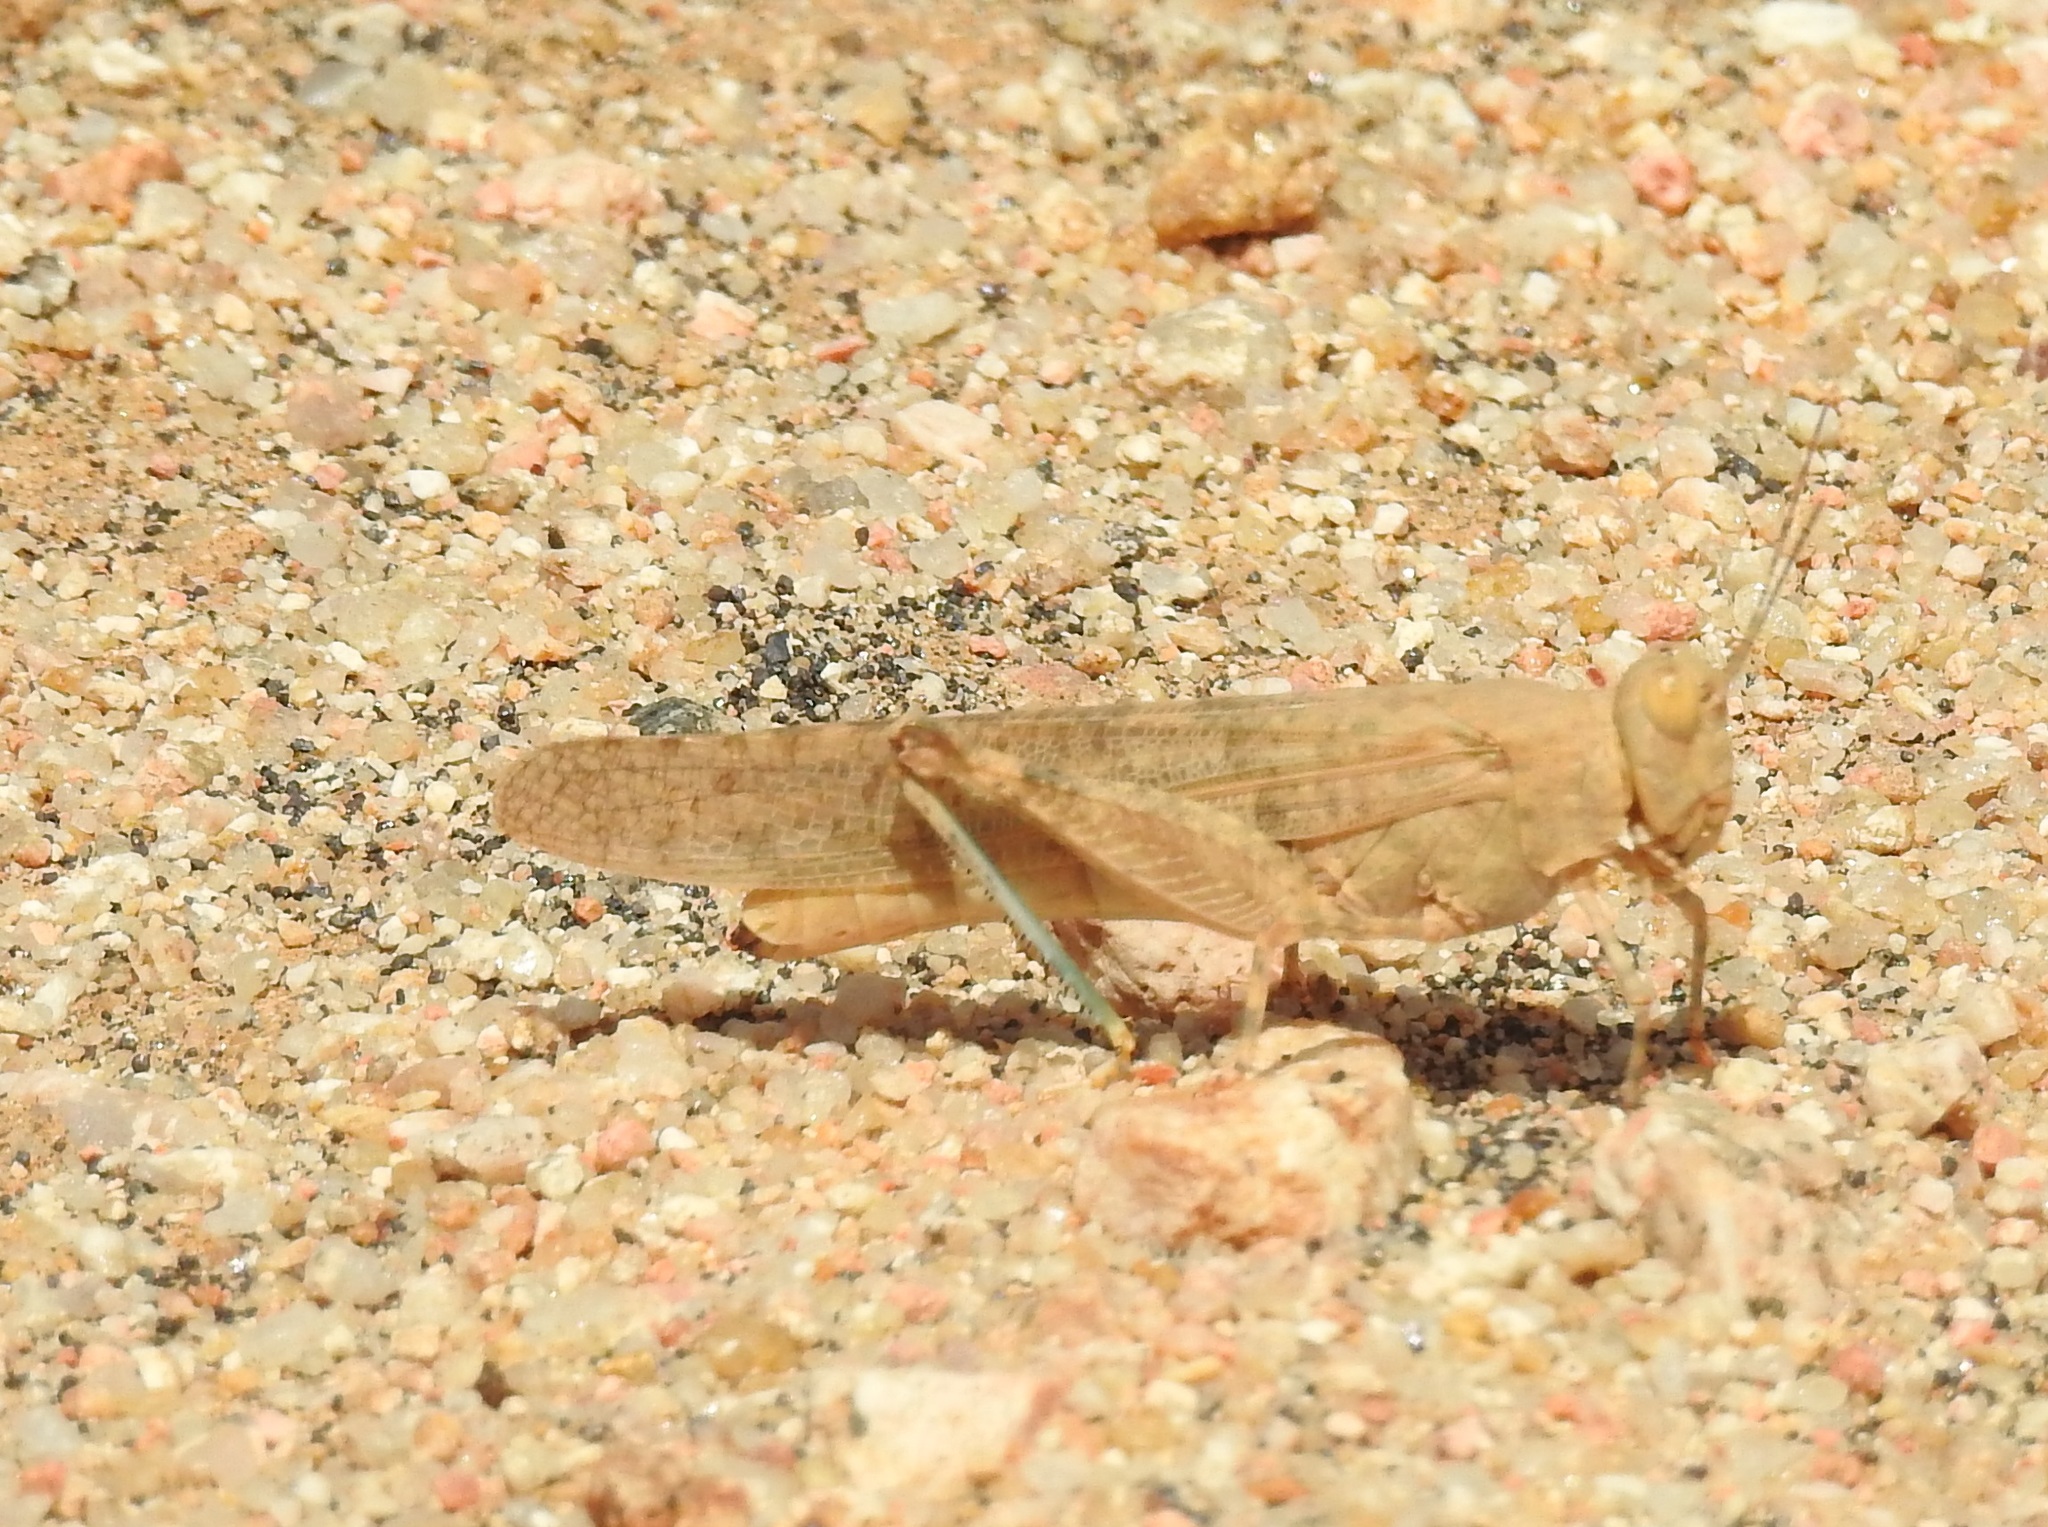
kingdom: Animalia
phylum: Arthropoda
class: Insecta
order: Orthoptera
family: Acrididae
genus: Sphingonotus
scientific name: Sphingonotus rubescens
